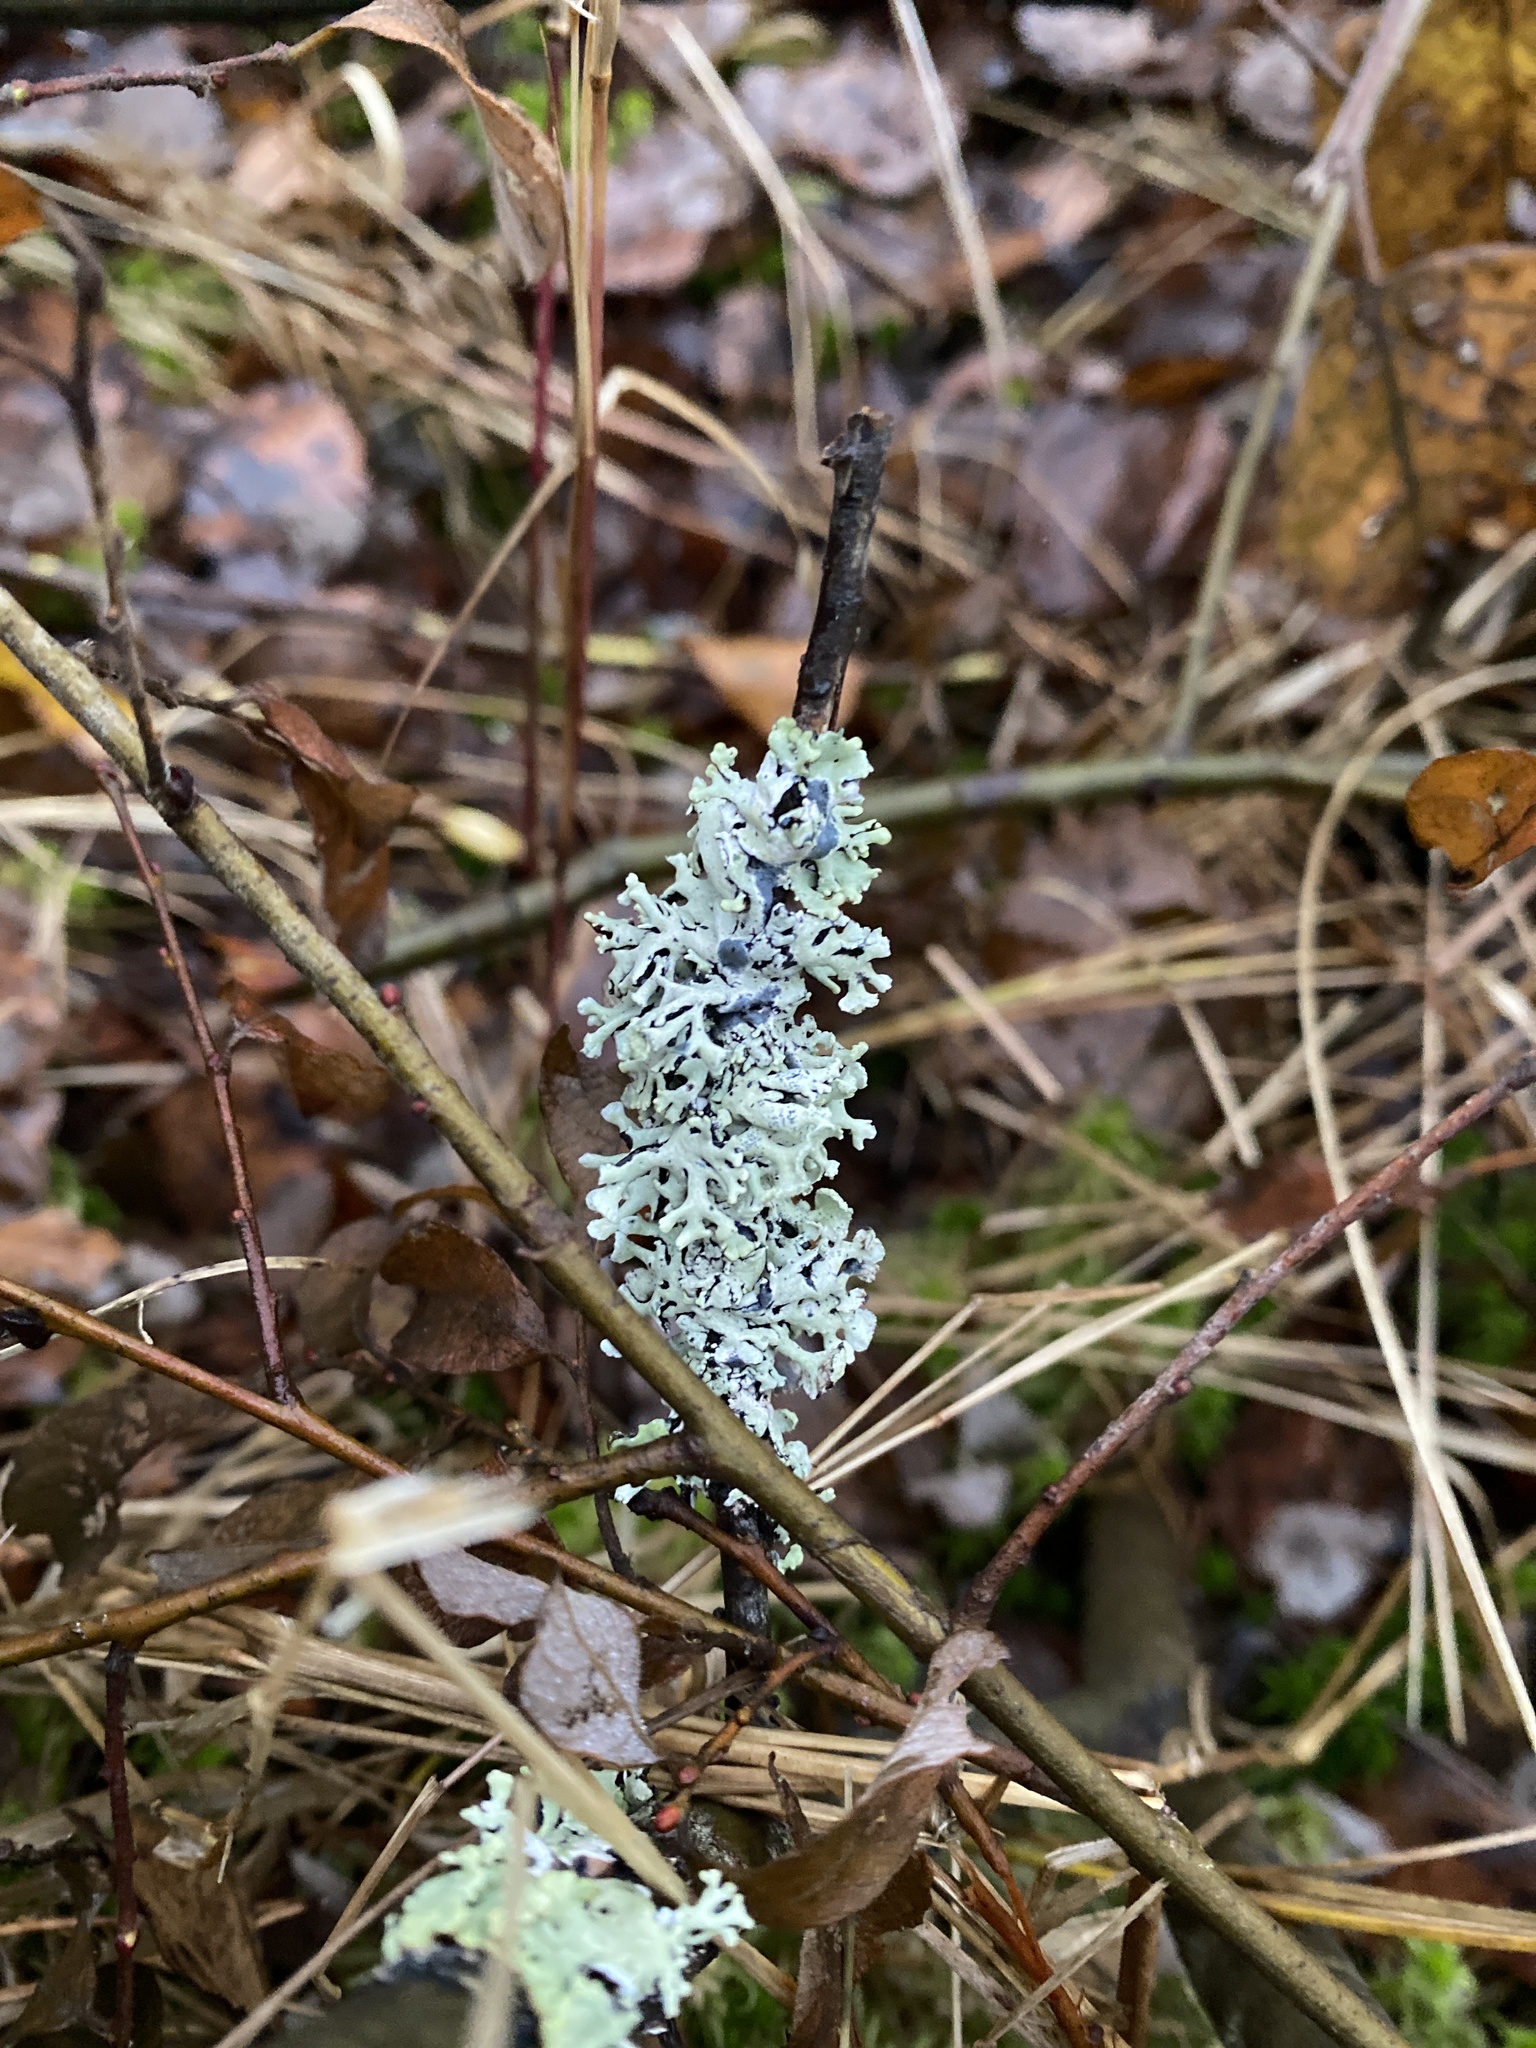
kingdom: Fungi
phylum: Ascomycota
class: Lecanoromycetes
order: Lecanorales
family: Parmeliaceae
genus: Hypogymnia
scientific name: Hypogymnia physodes
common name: Dark crottle
